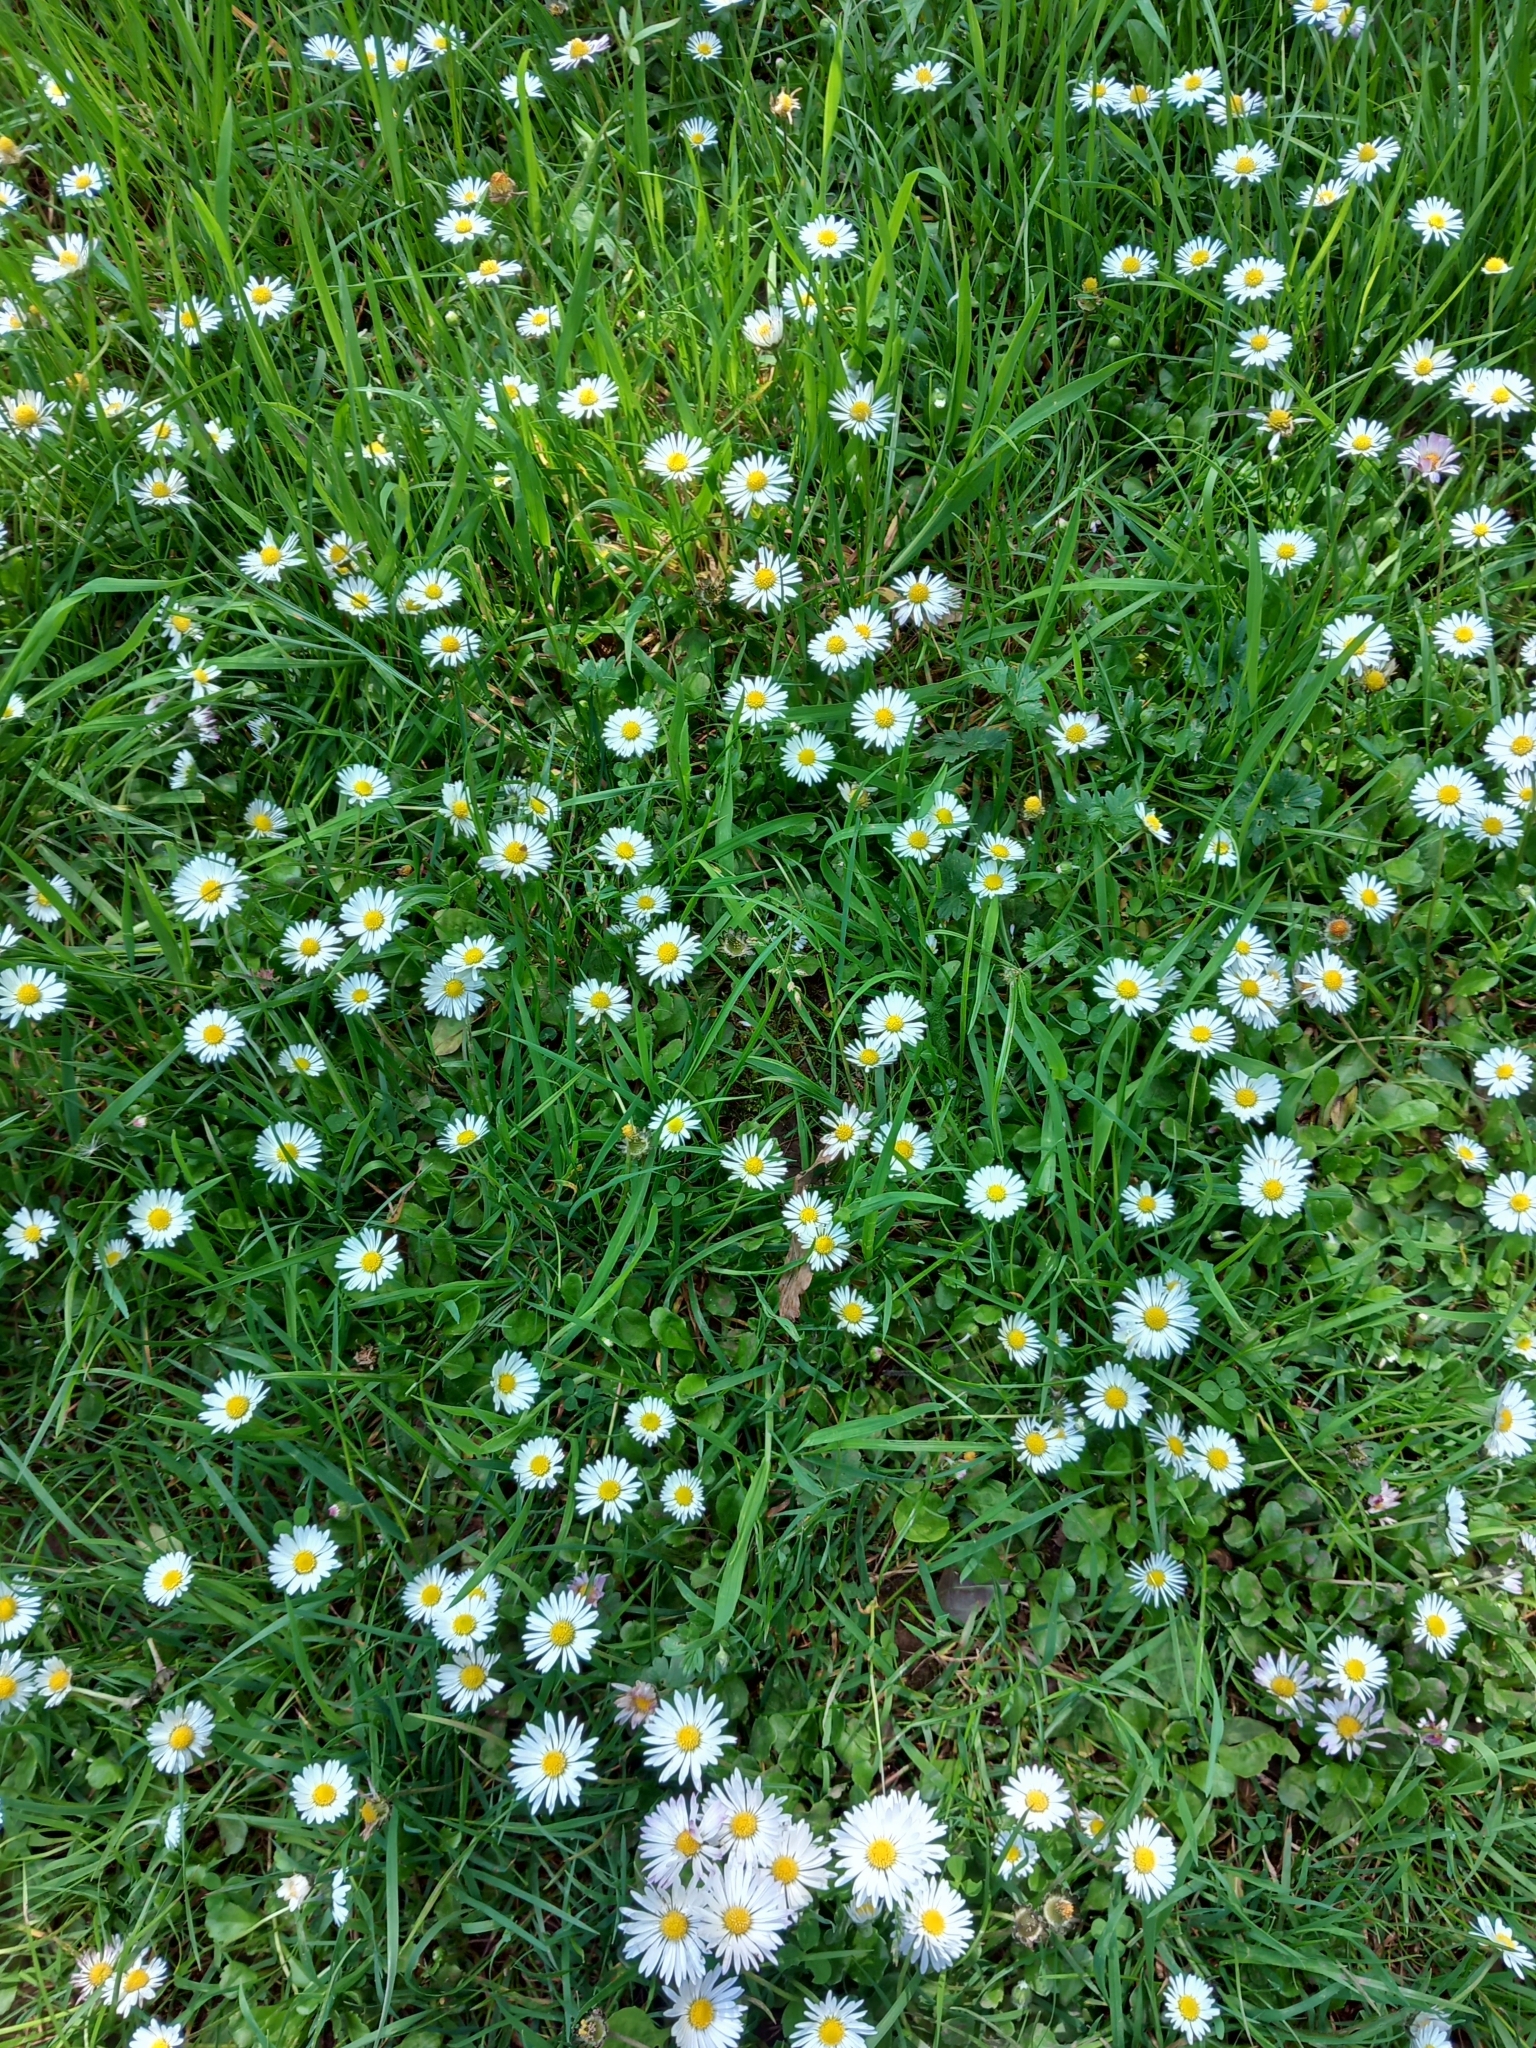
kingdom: Plantae
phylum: Tracheophyta
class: Magnoliopsida
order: Asterales
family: Asteraceae
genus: Bellis
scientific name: Bellis perennis
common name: Lawndaisy
